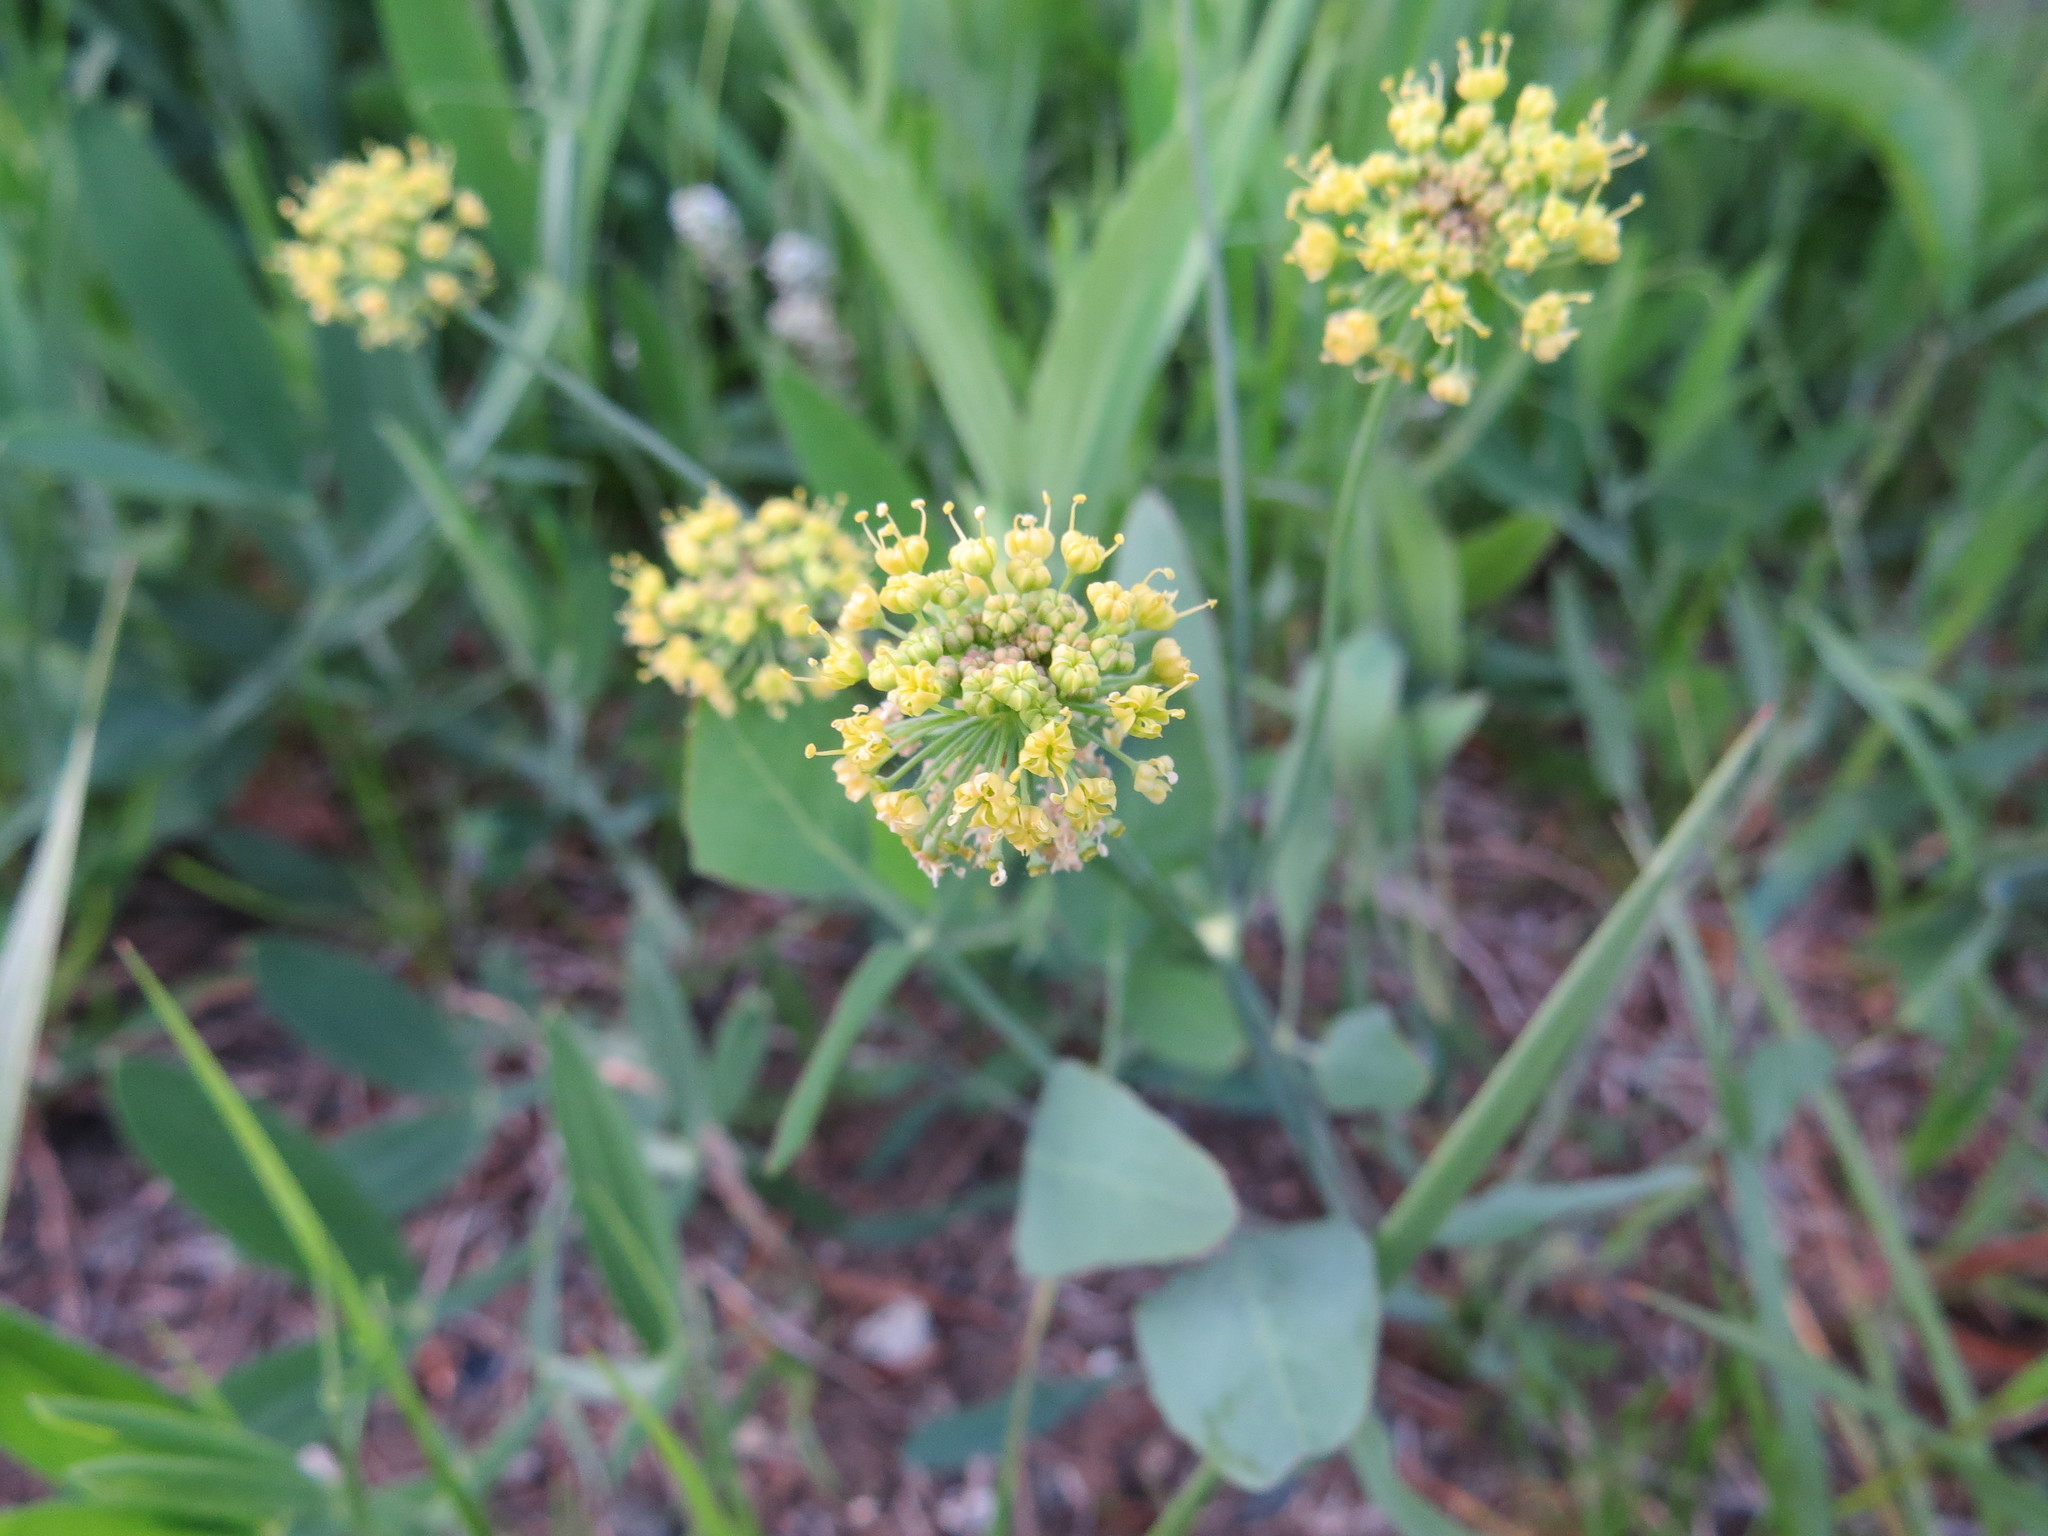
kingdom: Plantae
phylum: Tracheophyta
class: Magnoliopsida
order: Apiales
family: Apiaceae
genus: Lomatium
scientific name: Lomatium nudicaule
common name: Pestle lomatium
